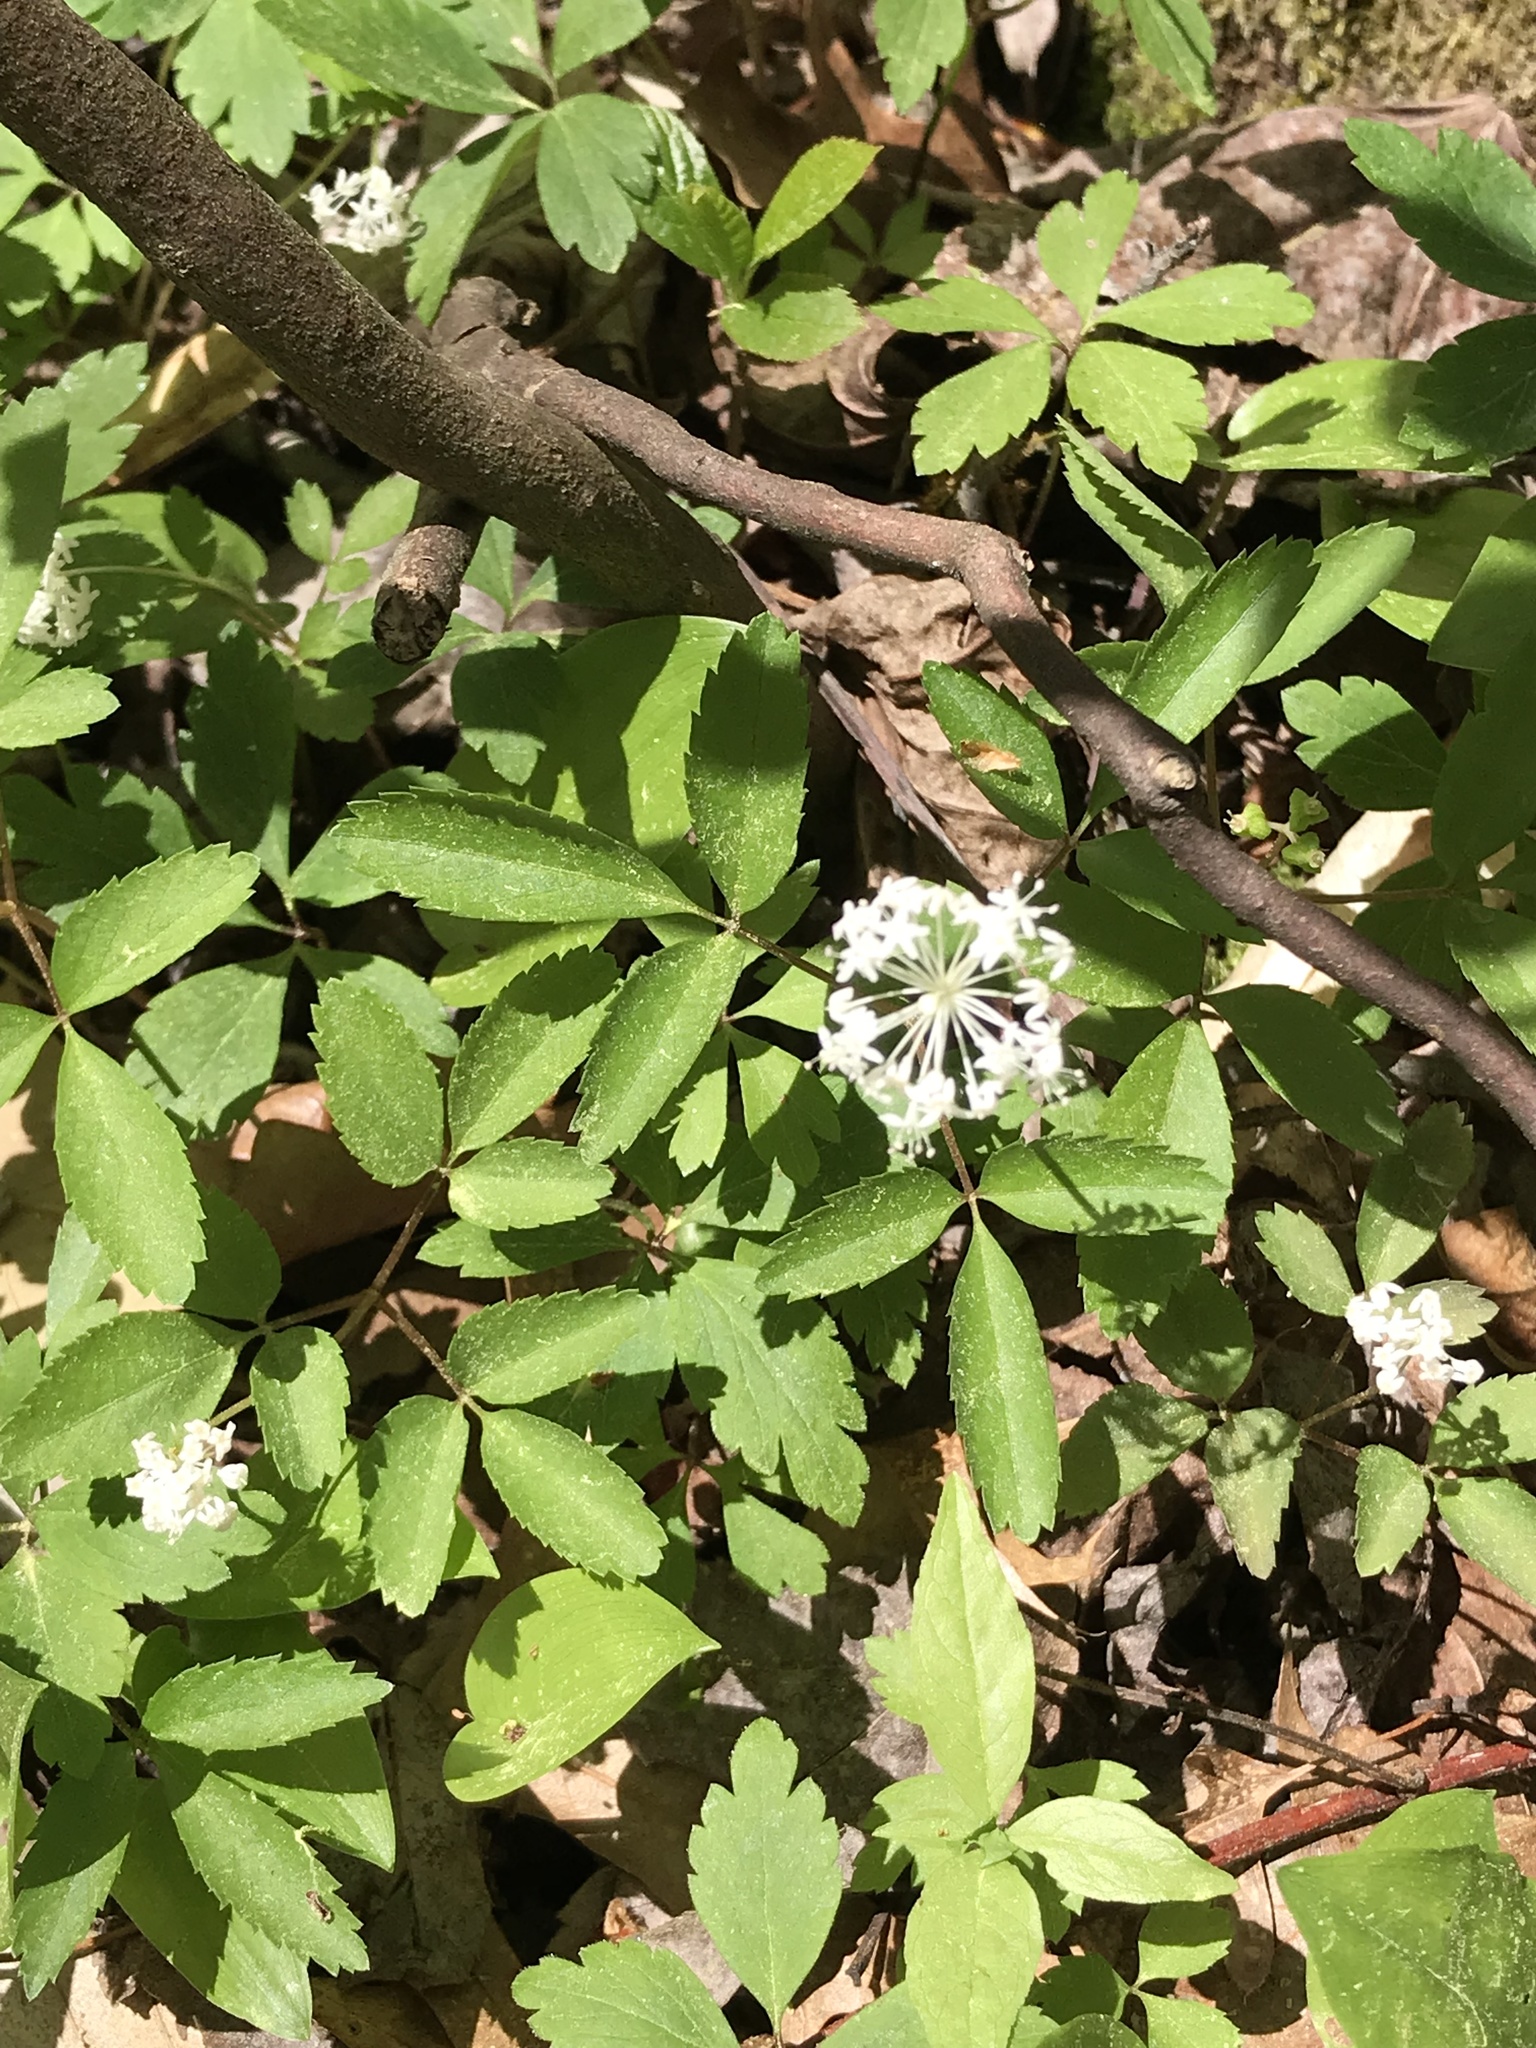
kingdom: Plantae
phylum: Tracheophyta
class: Magnoliopsida
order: Apiales
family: Araliaceae
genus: Panax
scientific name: Panax trifolius
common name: Dwarf ginseng
